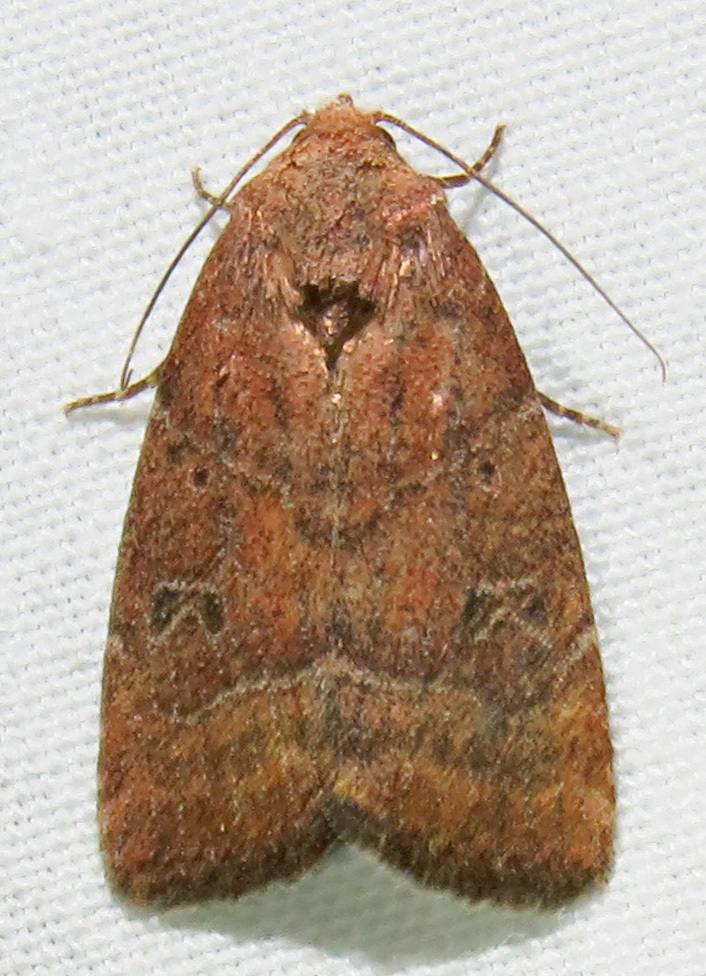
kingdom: Animalia
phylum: Arthropoda
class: Insecta
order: Lepidoptera
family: Noctuidae
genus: Elaphria
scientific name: Elaphria grata
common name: Grateful midget moth
